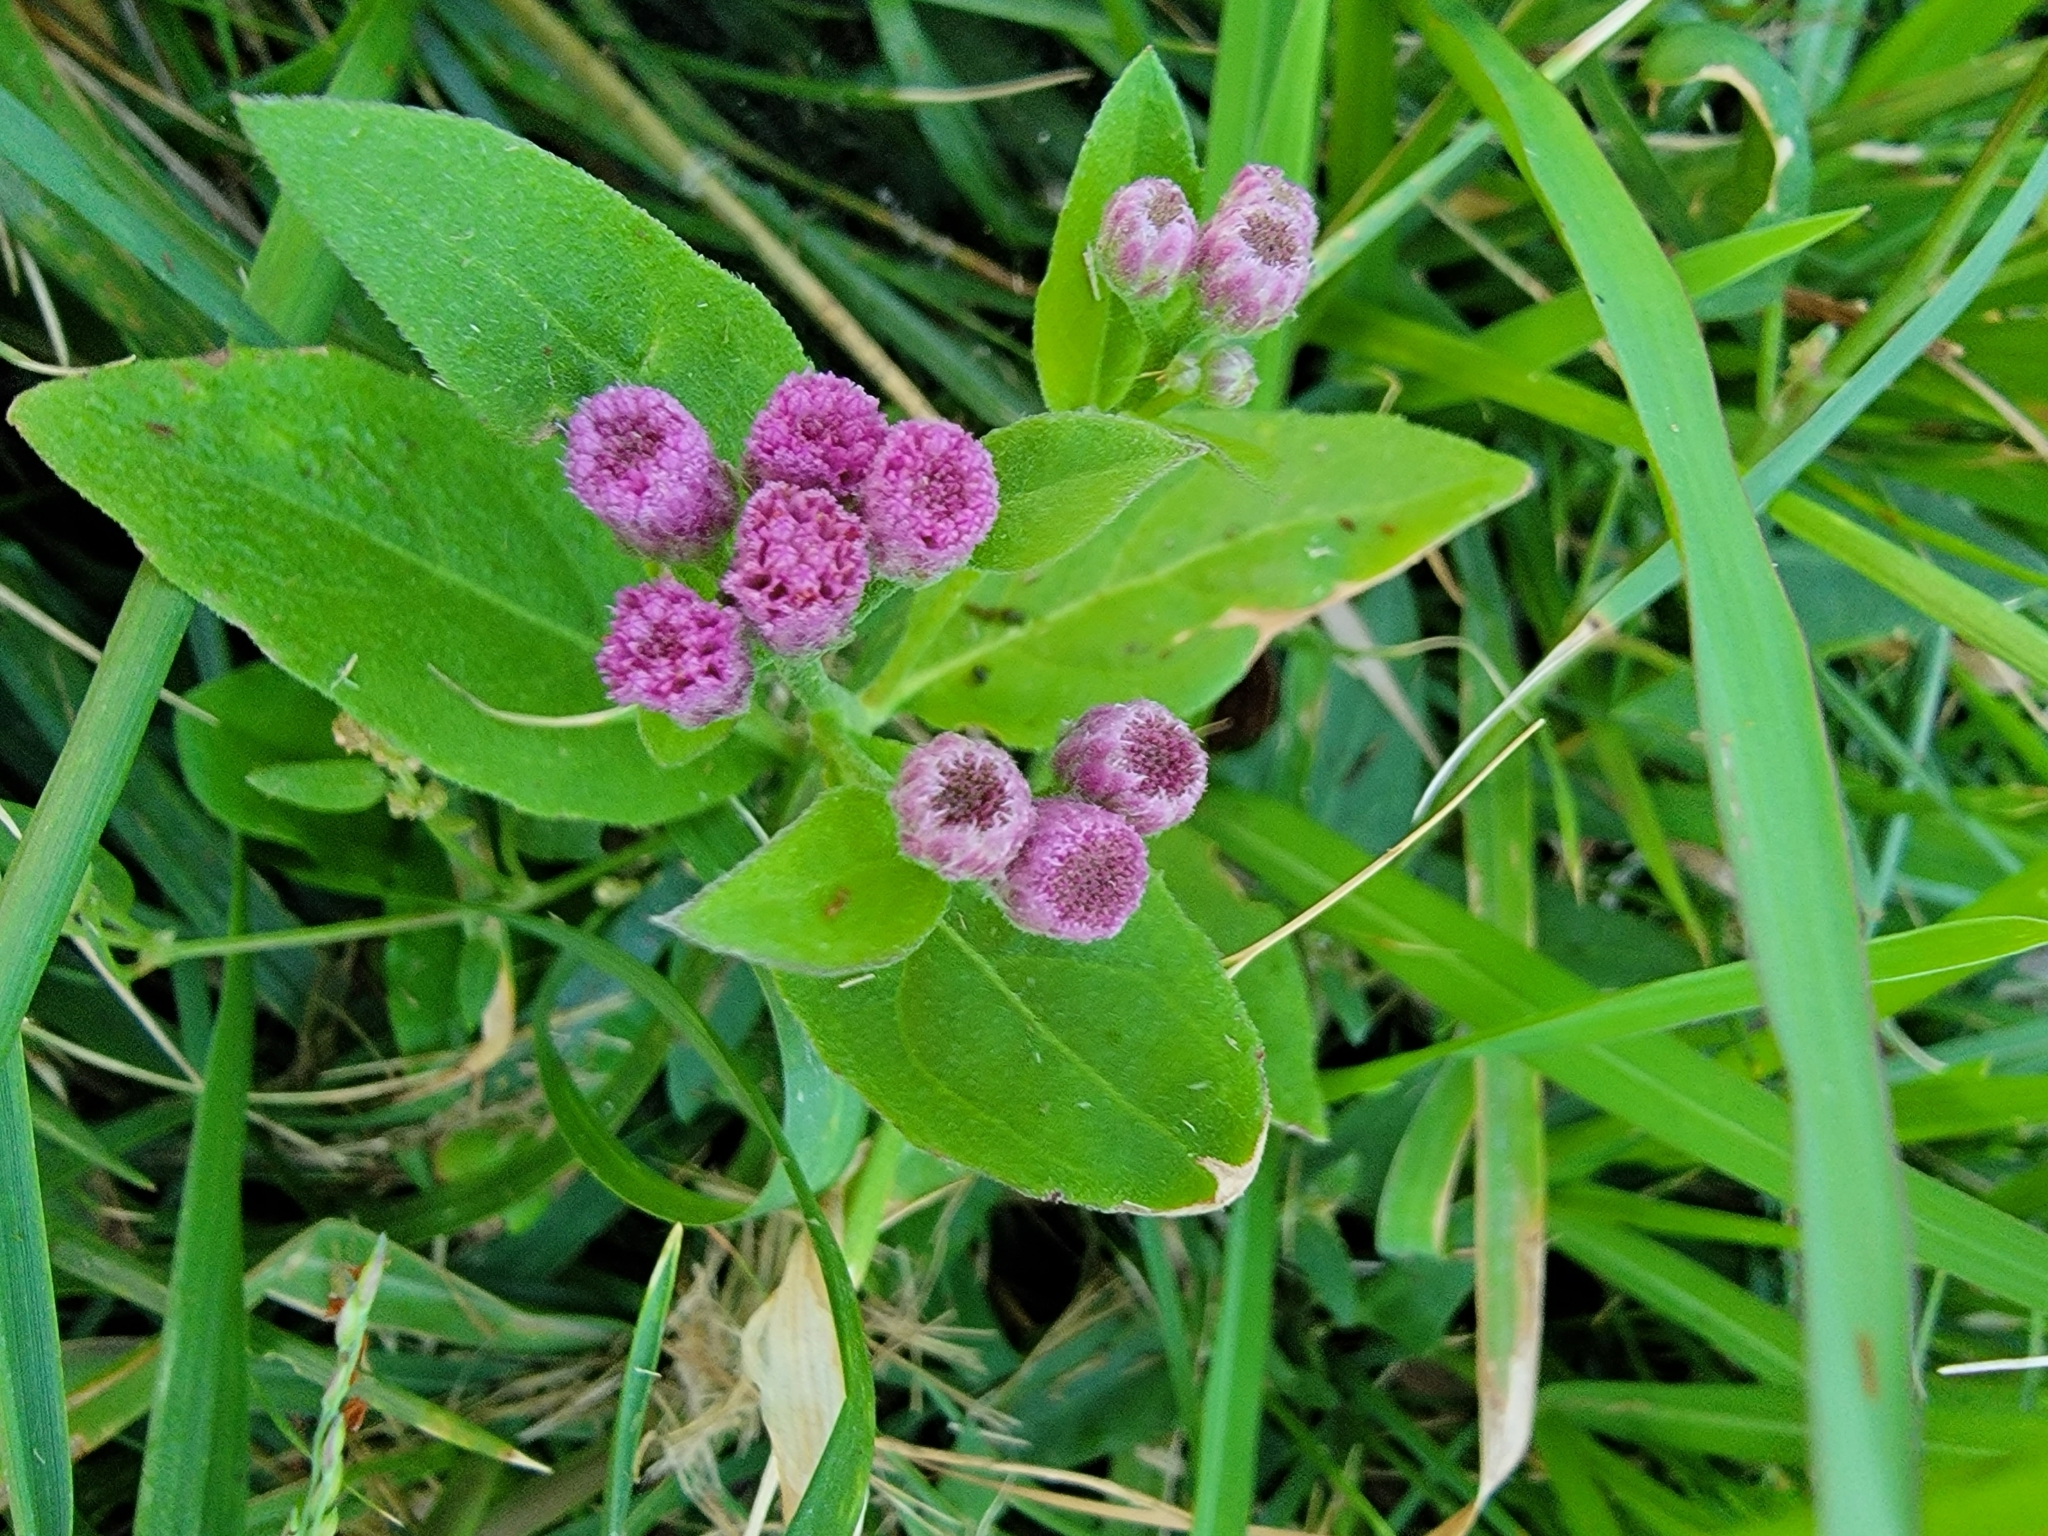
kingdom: Plantae
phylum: Tracheophyta
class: Magnoliopsida
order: Asterales
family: Asteraceae
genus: Pluchea
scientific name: Pluchea odorata
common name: Saltmarsh fleabane
